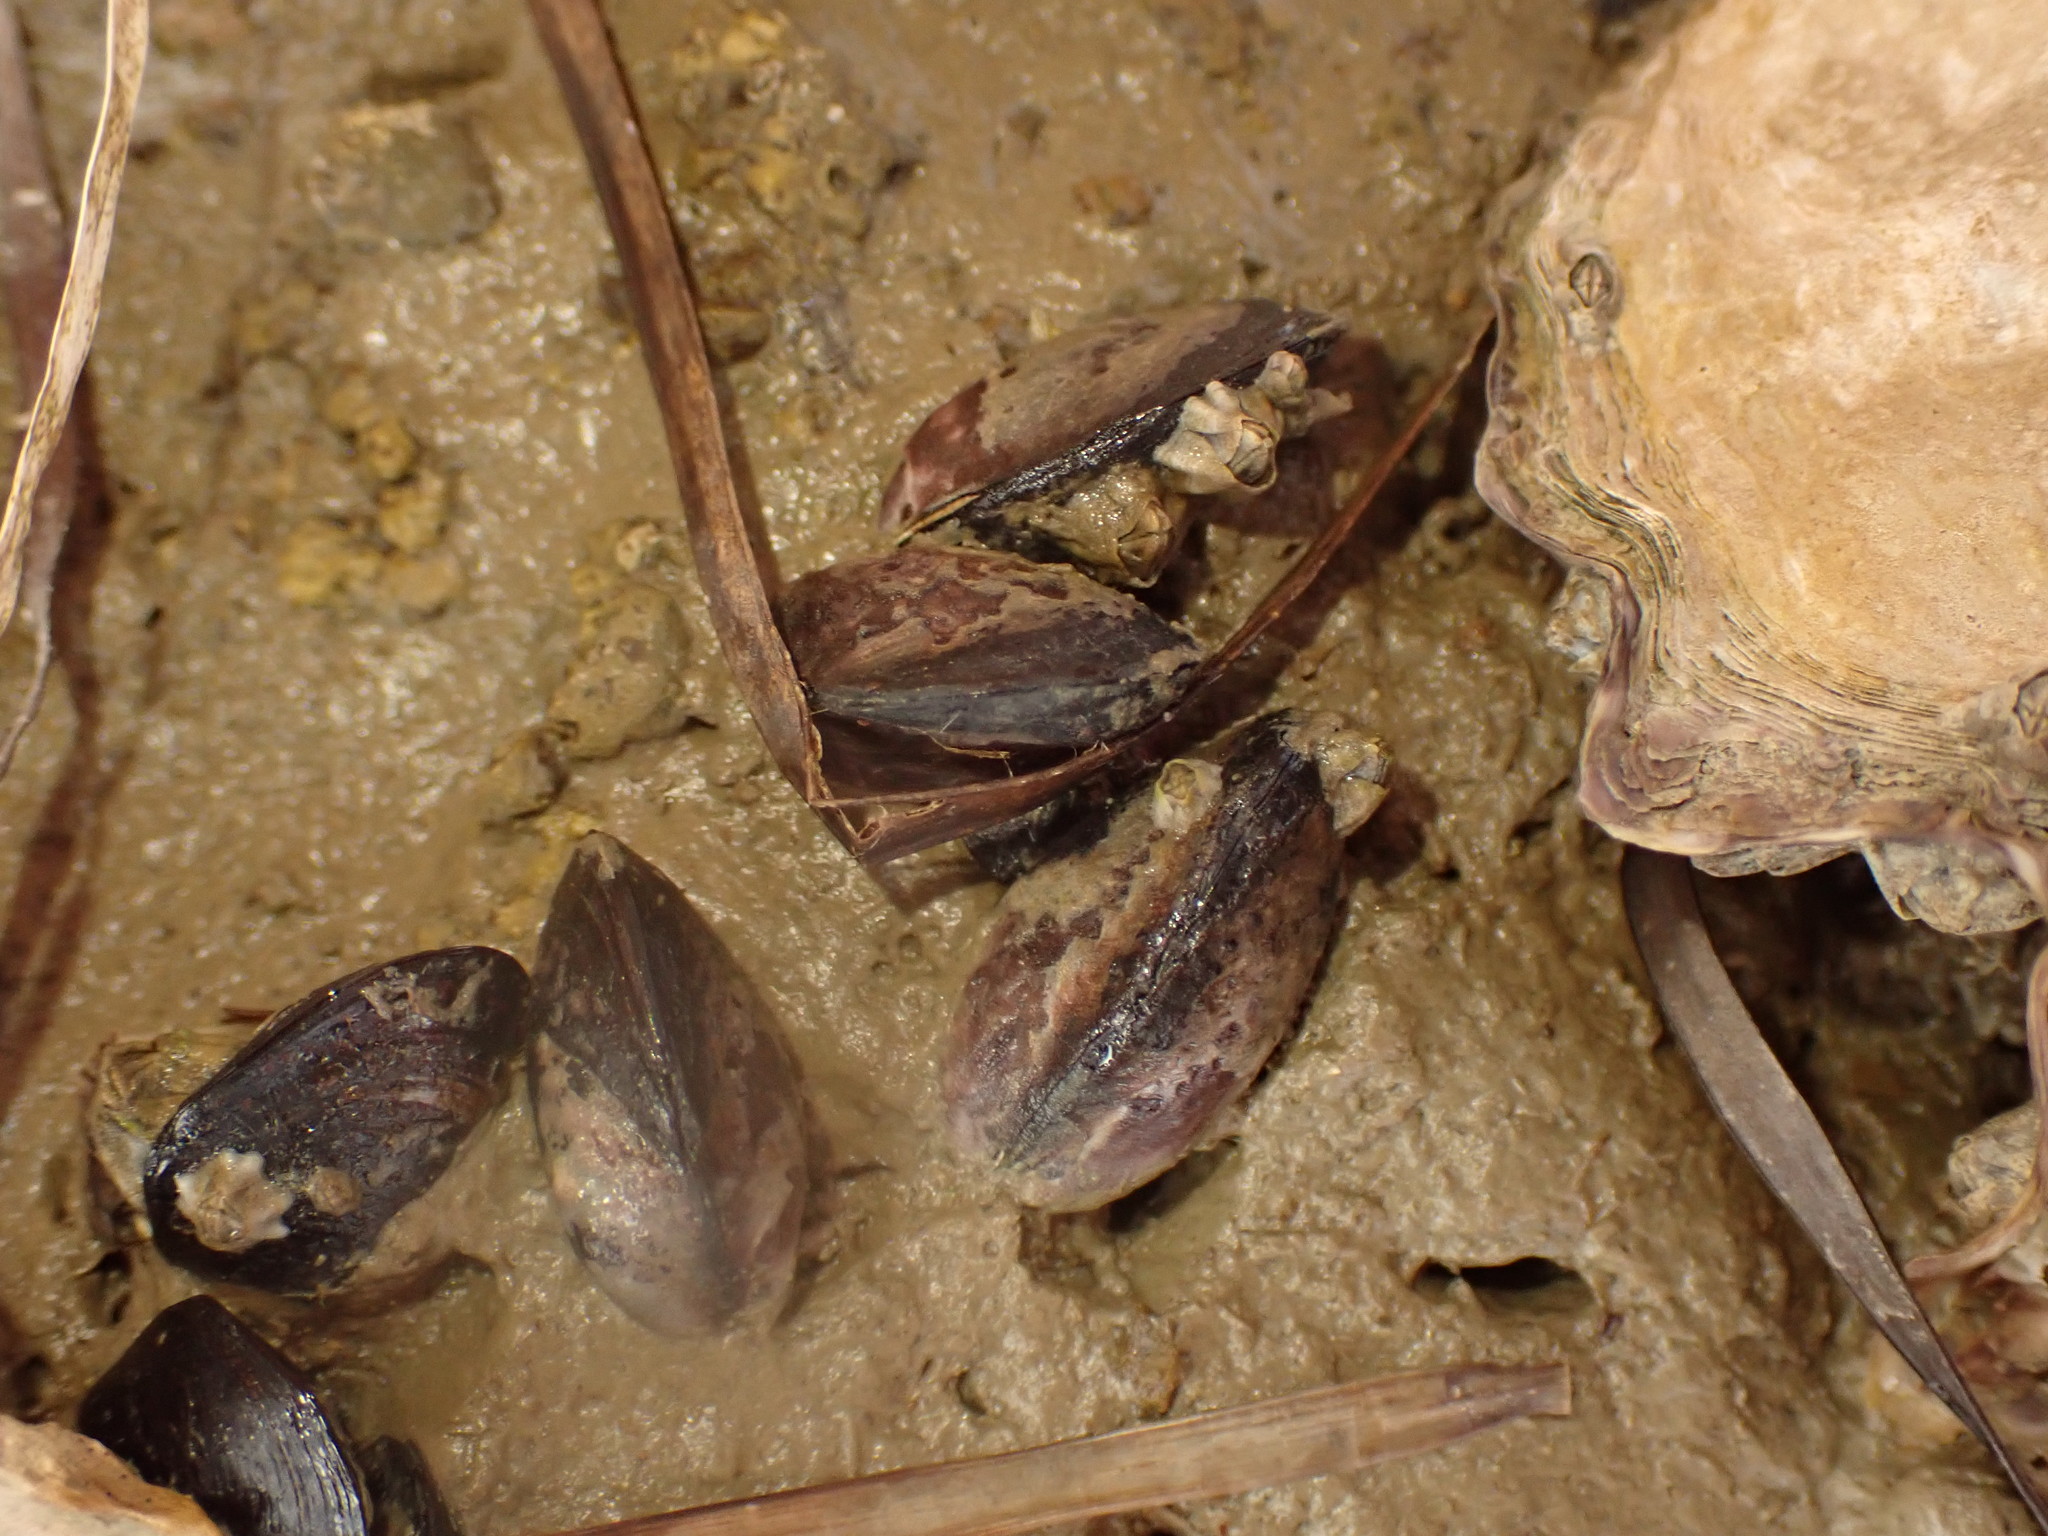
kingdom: Animalia
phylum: Mollusca
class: Bivalvia
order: Mytilida
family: Mytilidae
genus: Xenostrobus
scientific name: Xenostrobus neozelanicus
